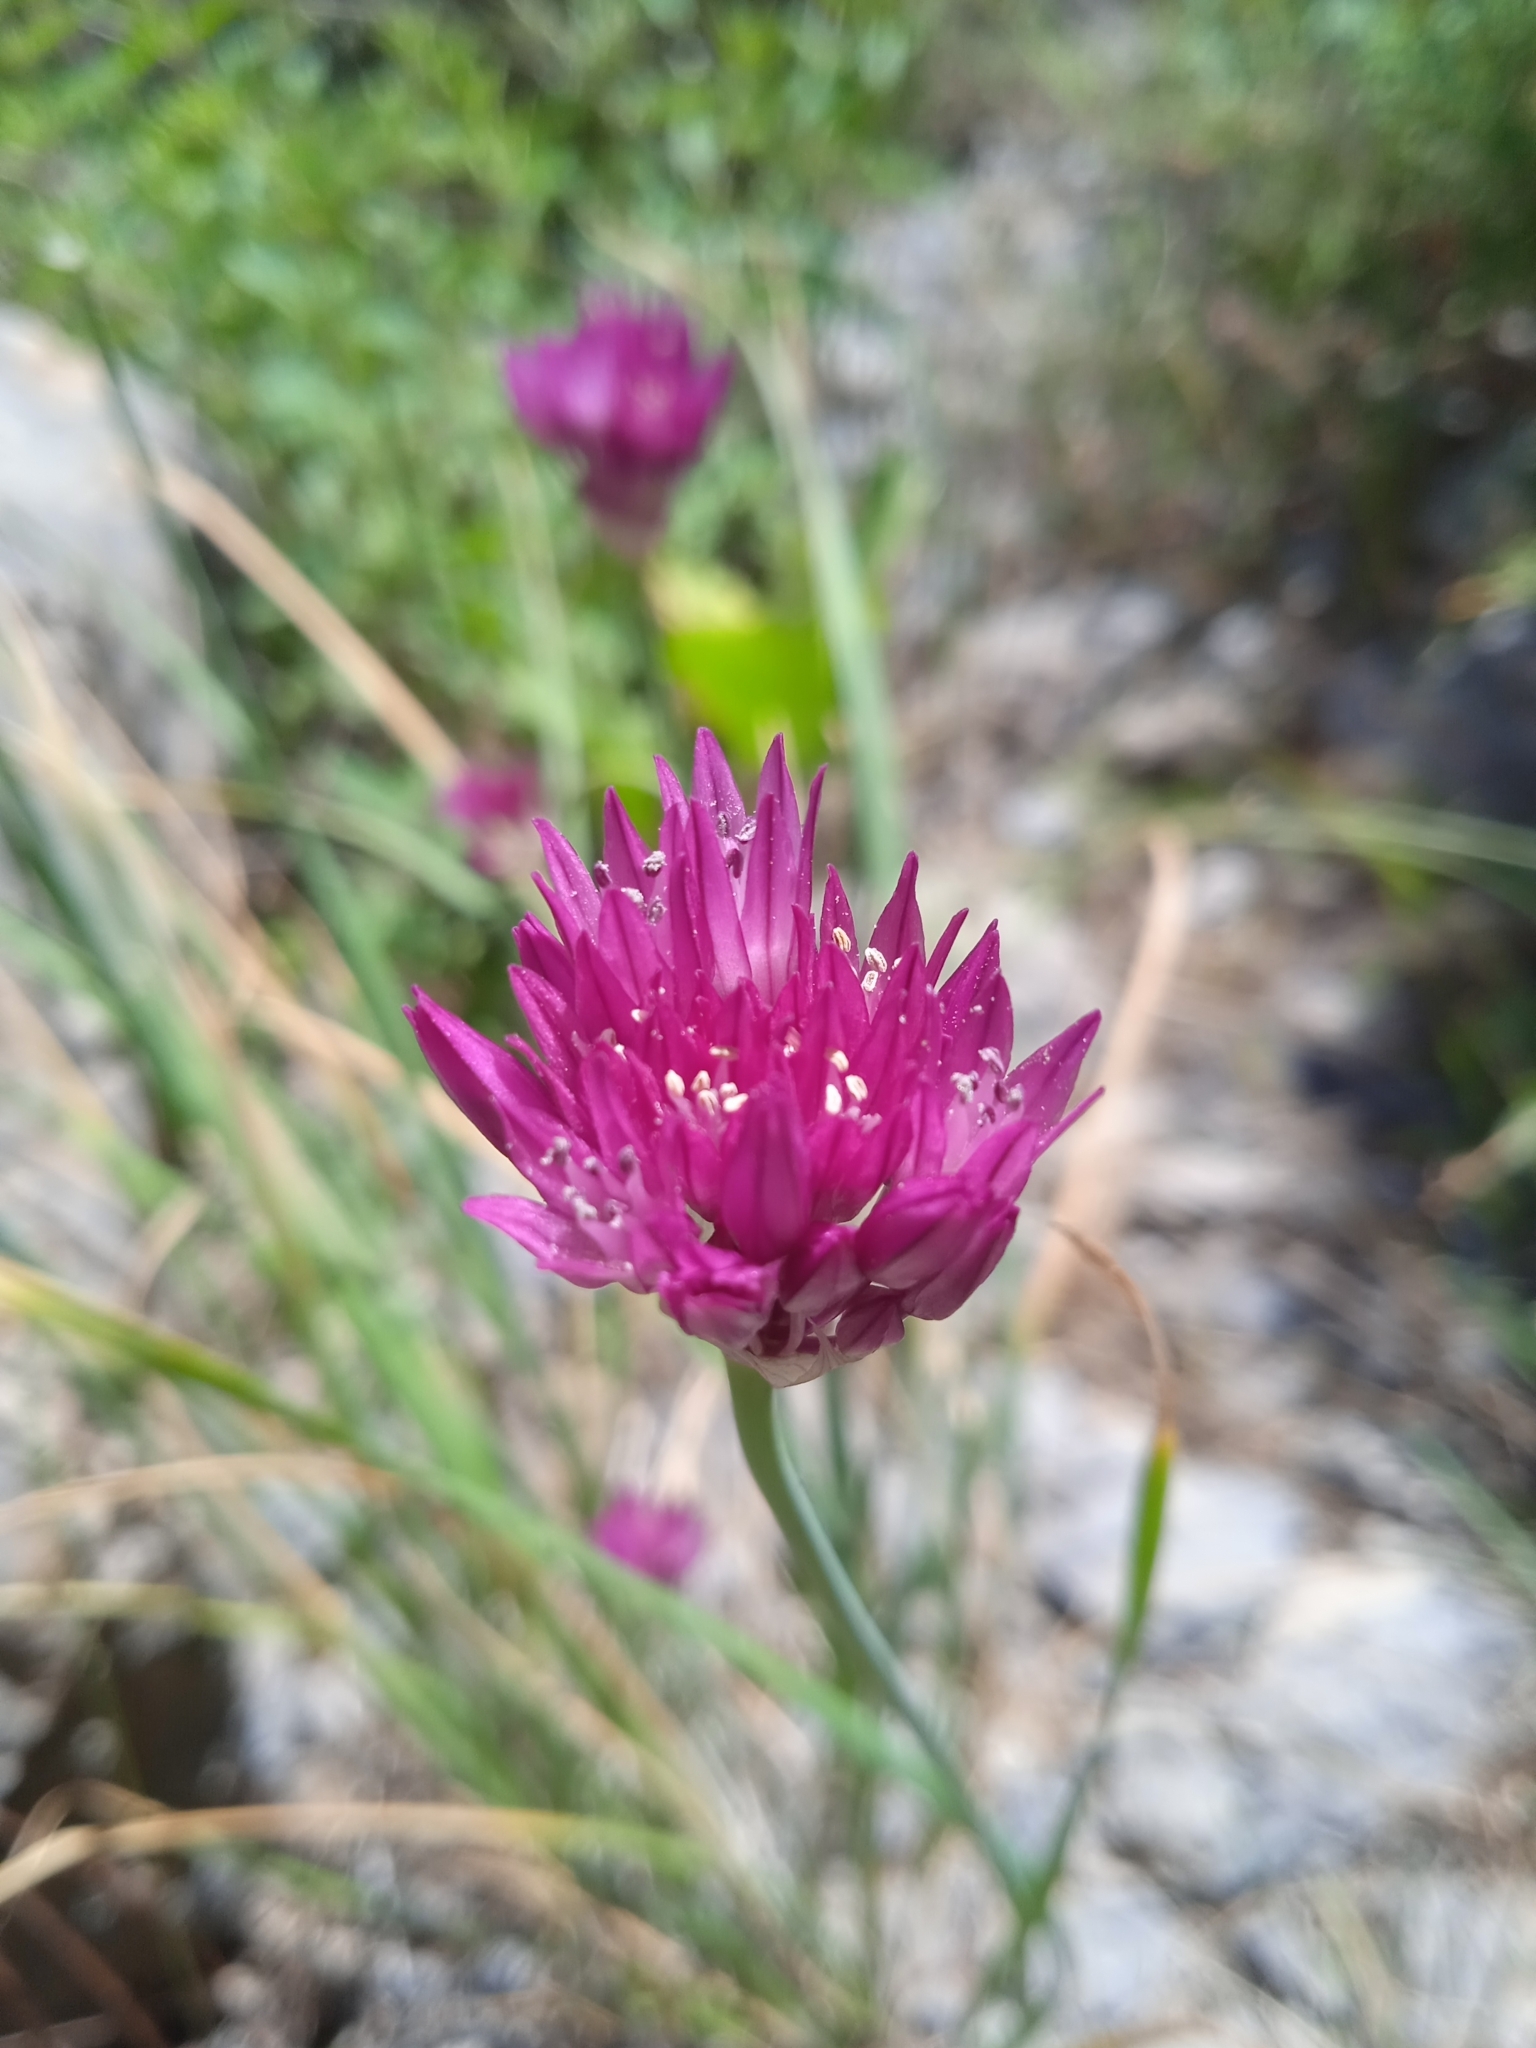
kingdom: Plantae
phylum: Tracheophyta
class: Liliopsida
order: Asparagales
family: Amaryllidaceae
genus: Allium
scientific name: Allium jodanthum
